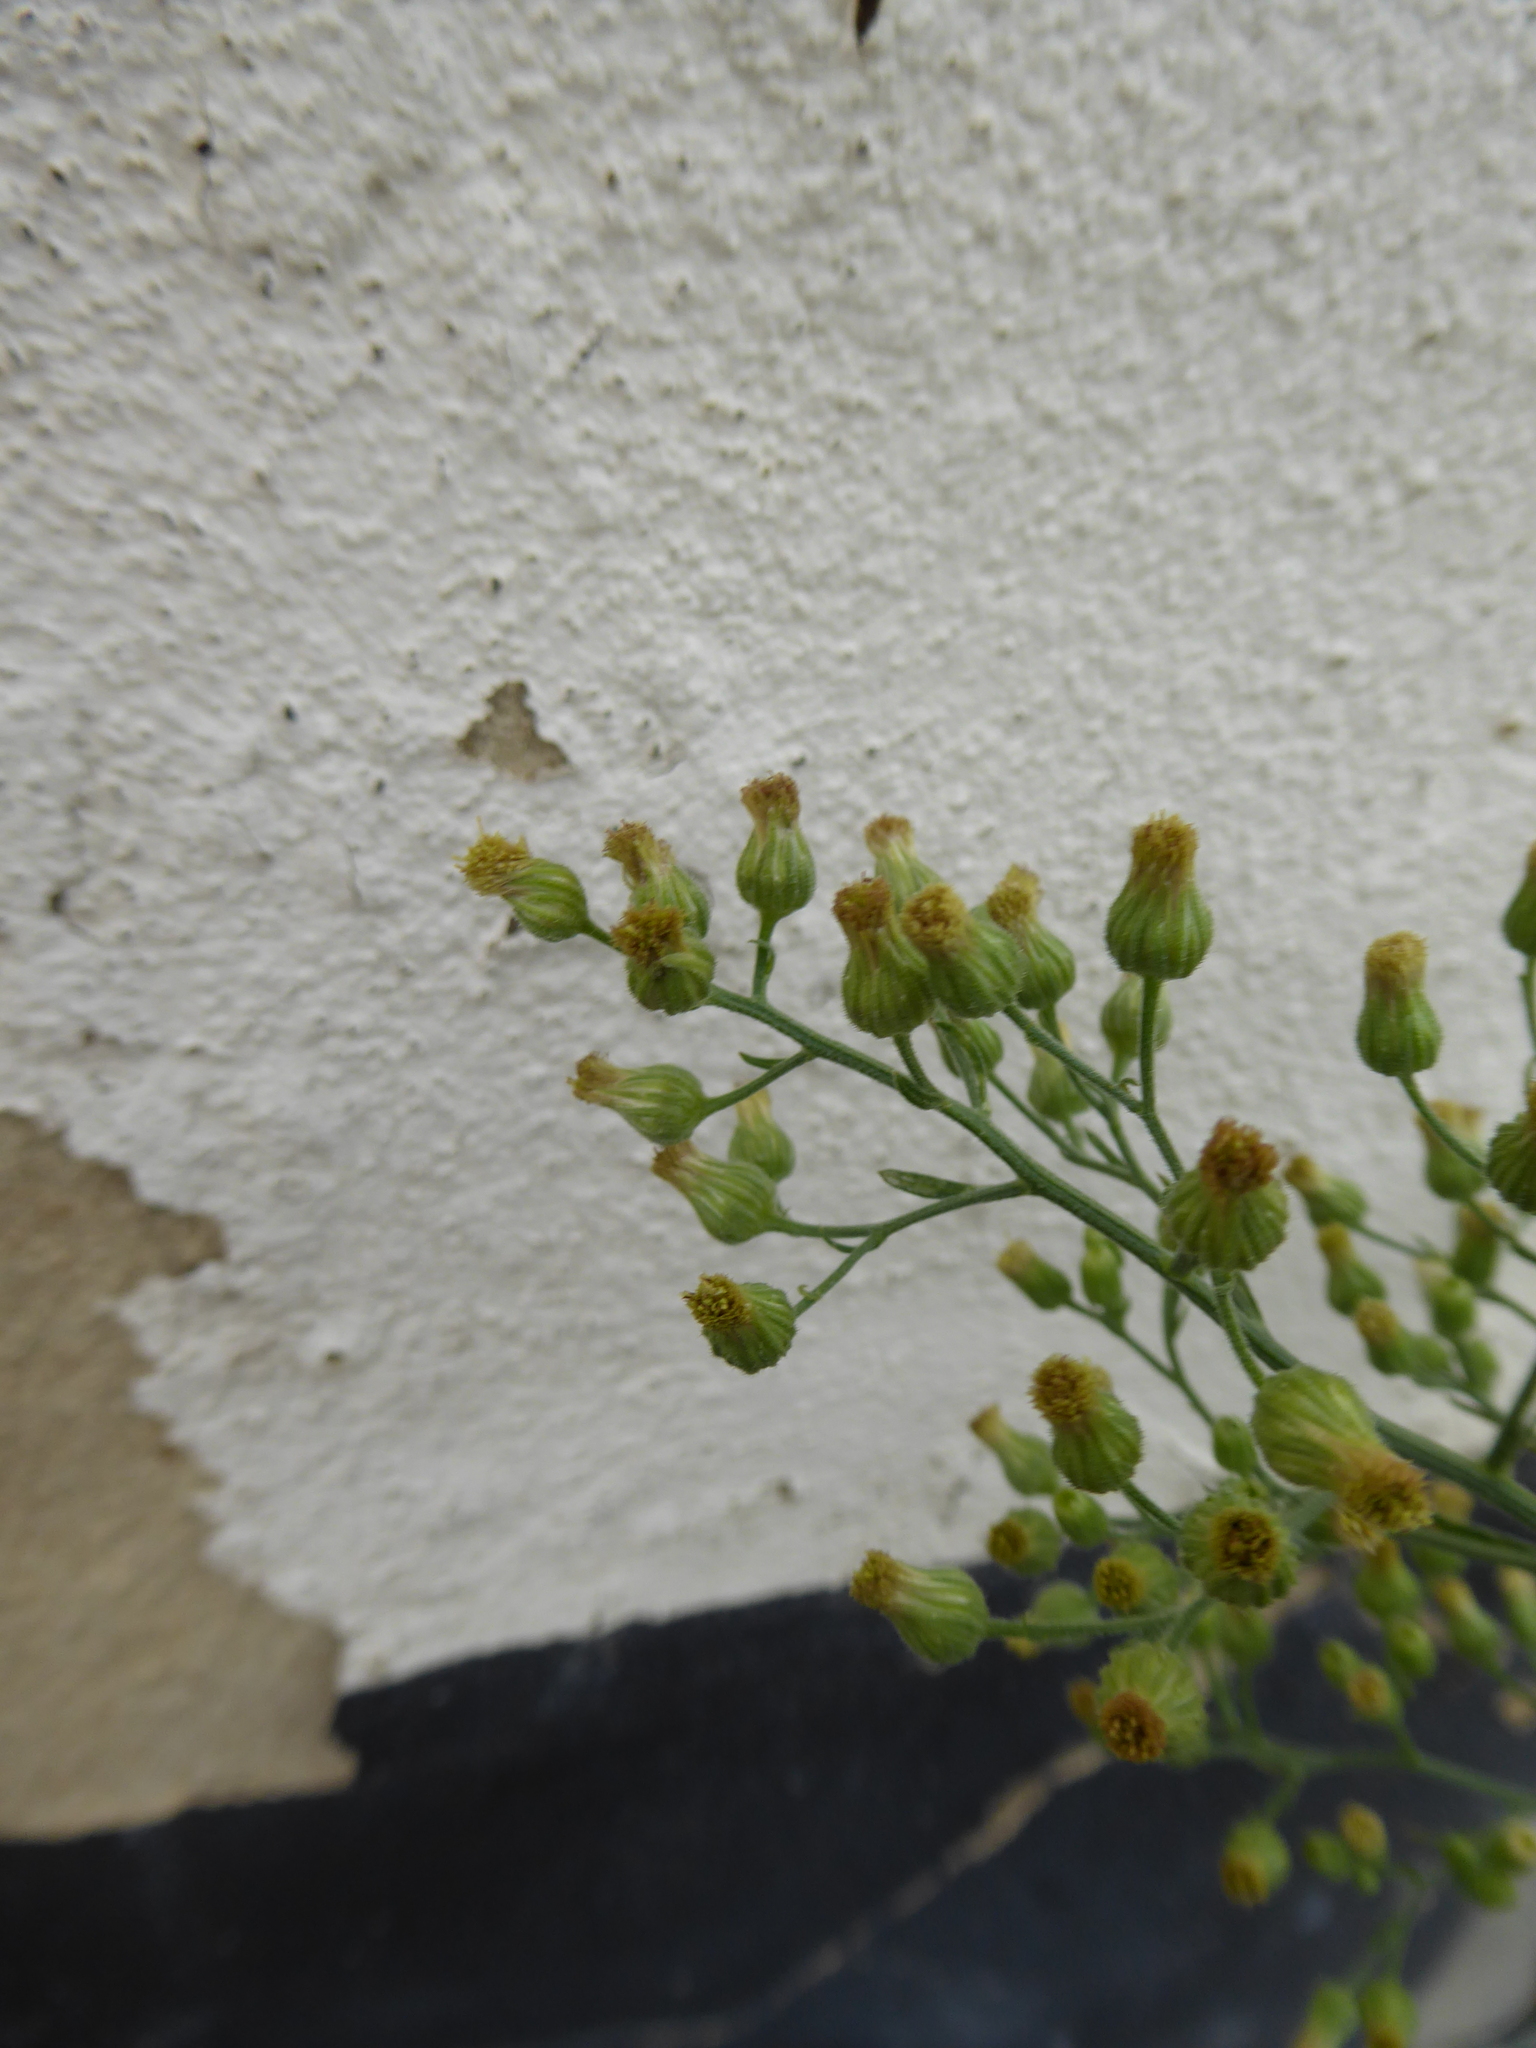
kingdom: Plantae
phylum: Tracheophyta
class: Magnoliopsida
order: Asterales
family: Asteraceae
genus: Erigeron
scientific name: Erigeron sumatrensis
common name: Daisy
